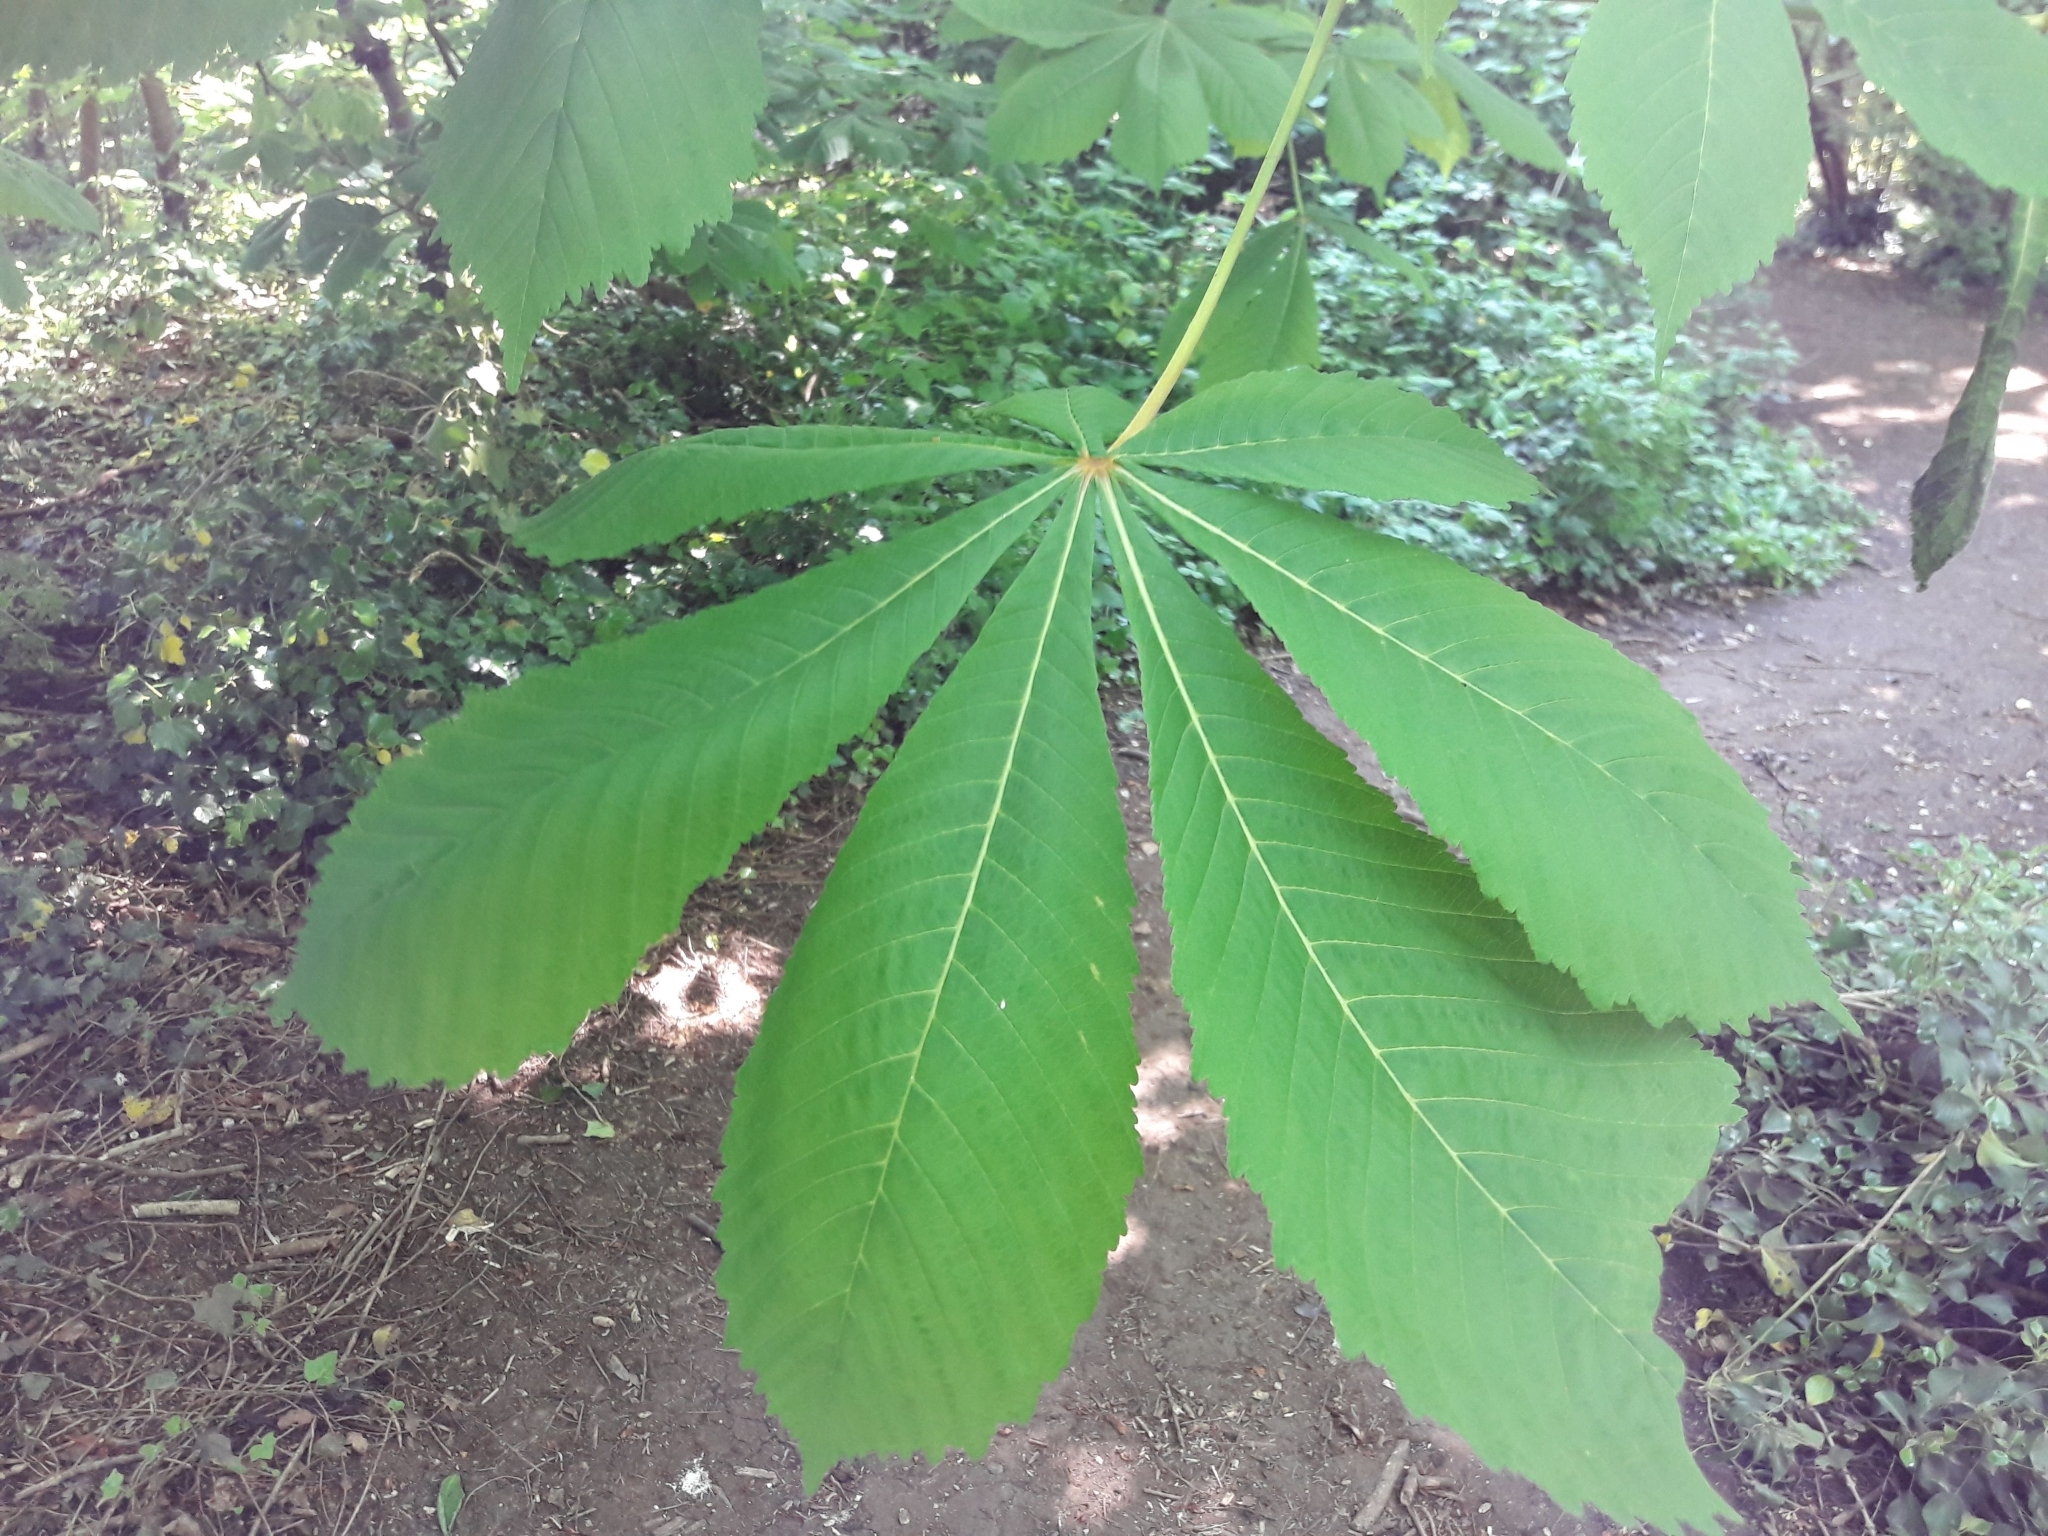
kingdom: Plantae
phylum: Tracheophyta
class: Magnoliopsida
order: Sapindales
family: Sapindaceae
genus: Aesculus
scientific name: Aesculus hippocastanum
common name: Horse-chestnut
